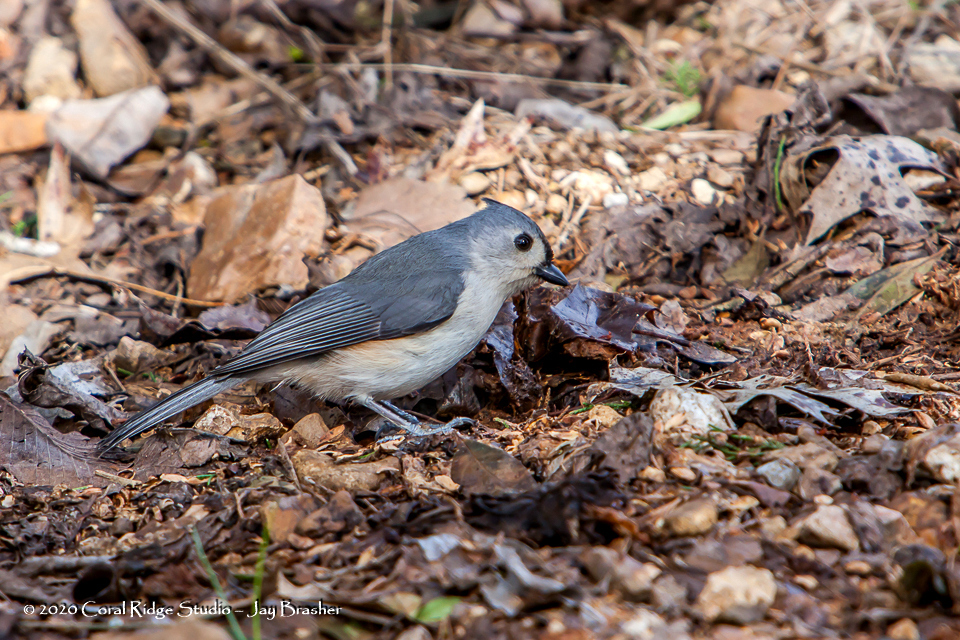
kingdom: Animalia
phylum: Chordata
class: Aves
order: Passeriformes
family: Paridae
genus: Baeolophus
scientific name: Baeolophus bicolor
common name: Tufted titmouse
